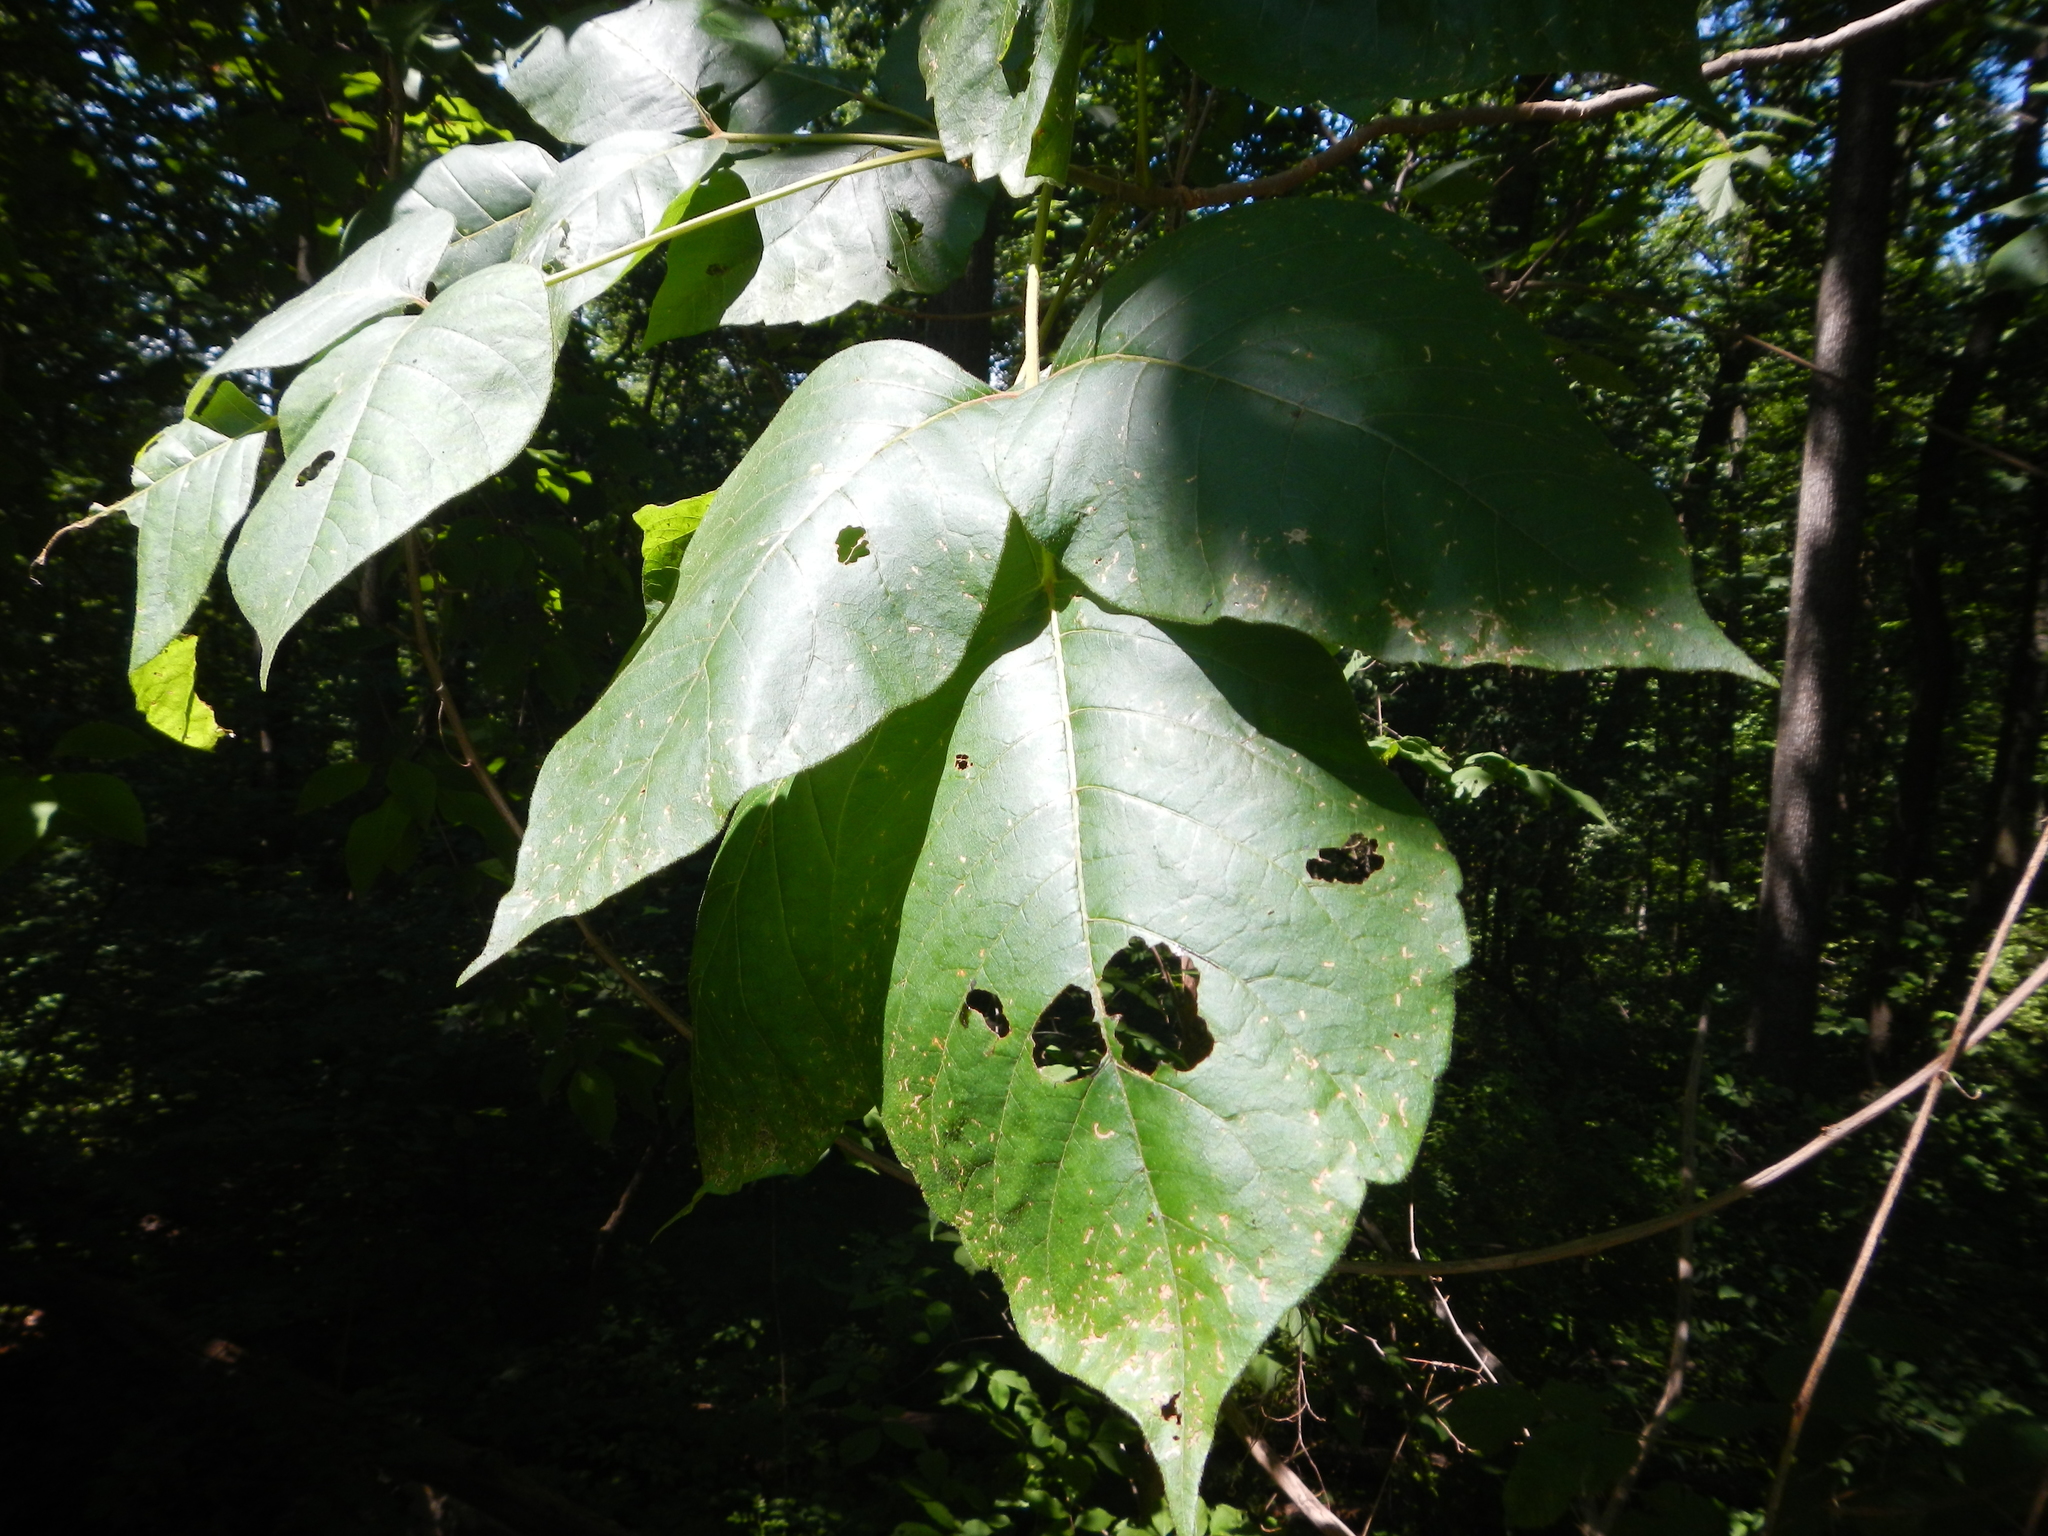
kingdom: Plantae
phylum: Tracheophyta
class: Magnoliopsida
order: Sapindales
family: Anacardiaceae
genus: Toxicodendron
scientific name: Toxicodendron radicans
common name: Poison ivy
